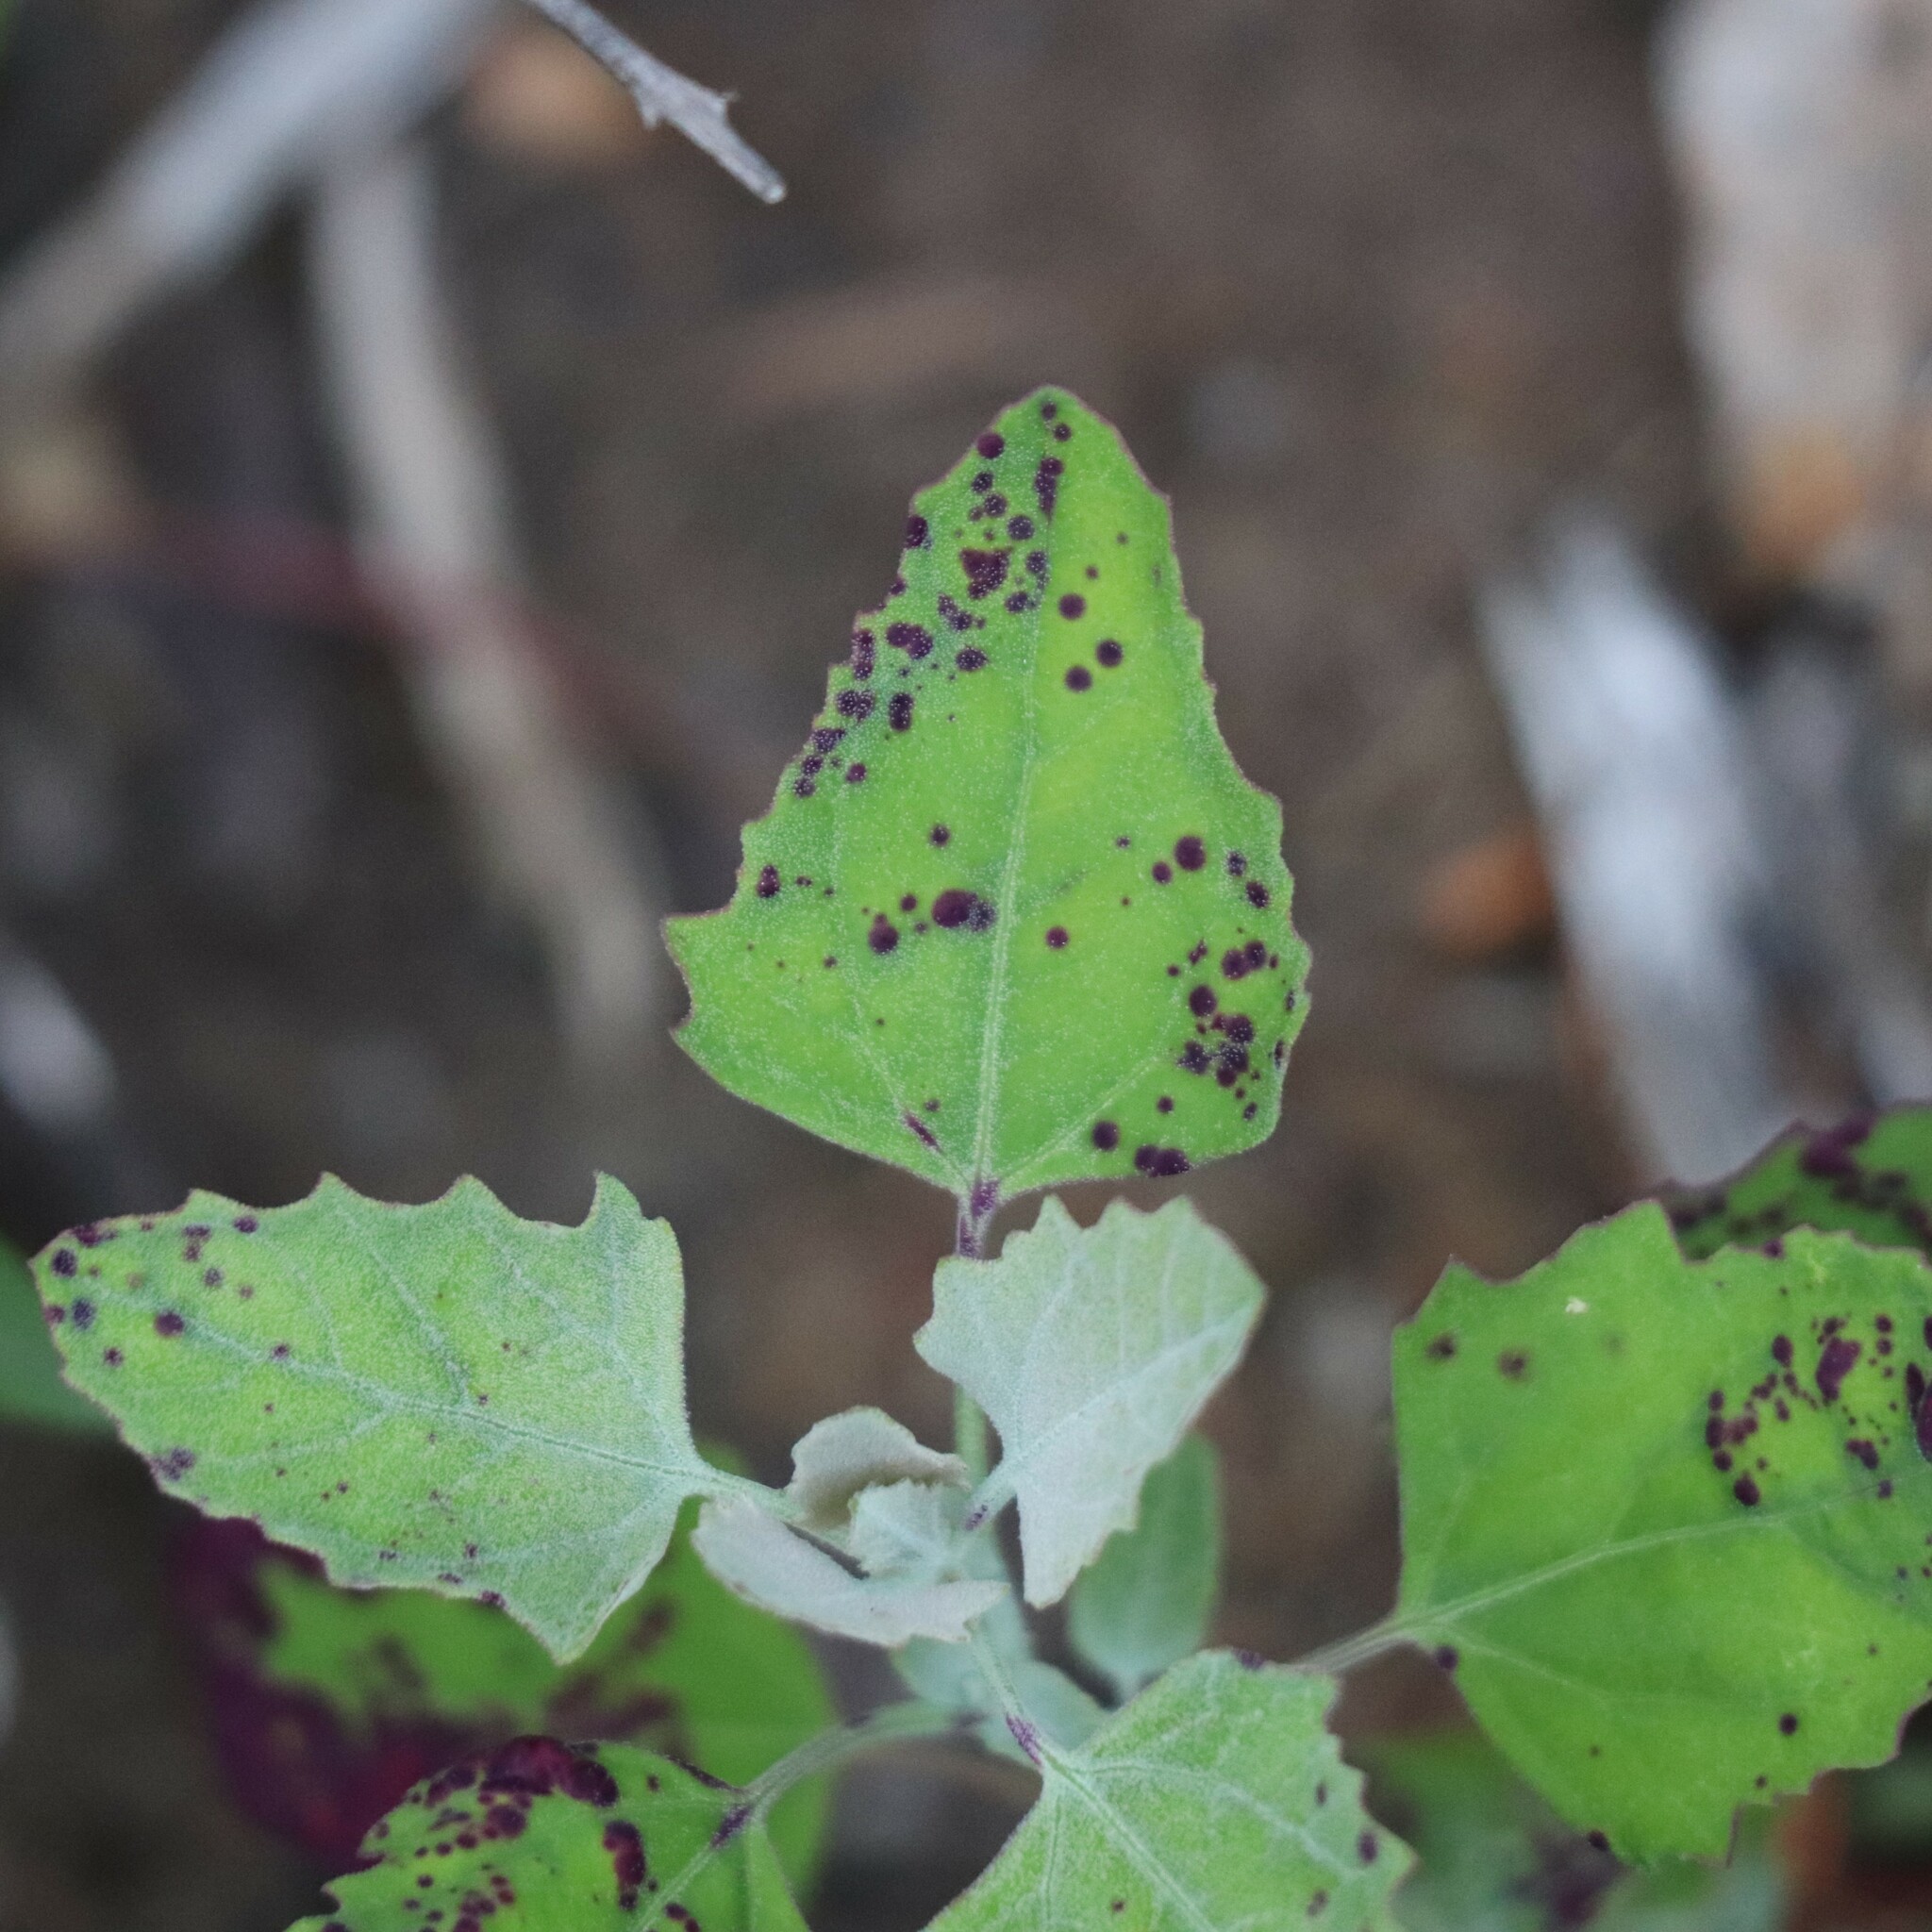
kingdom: Plantae
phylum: Tracheophyta
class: Magnoliopsida
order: Caryophyllales
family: Amaranthaceae
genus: Chenopodium
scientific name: Chenopodium album
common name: Fat-hen
